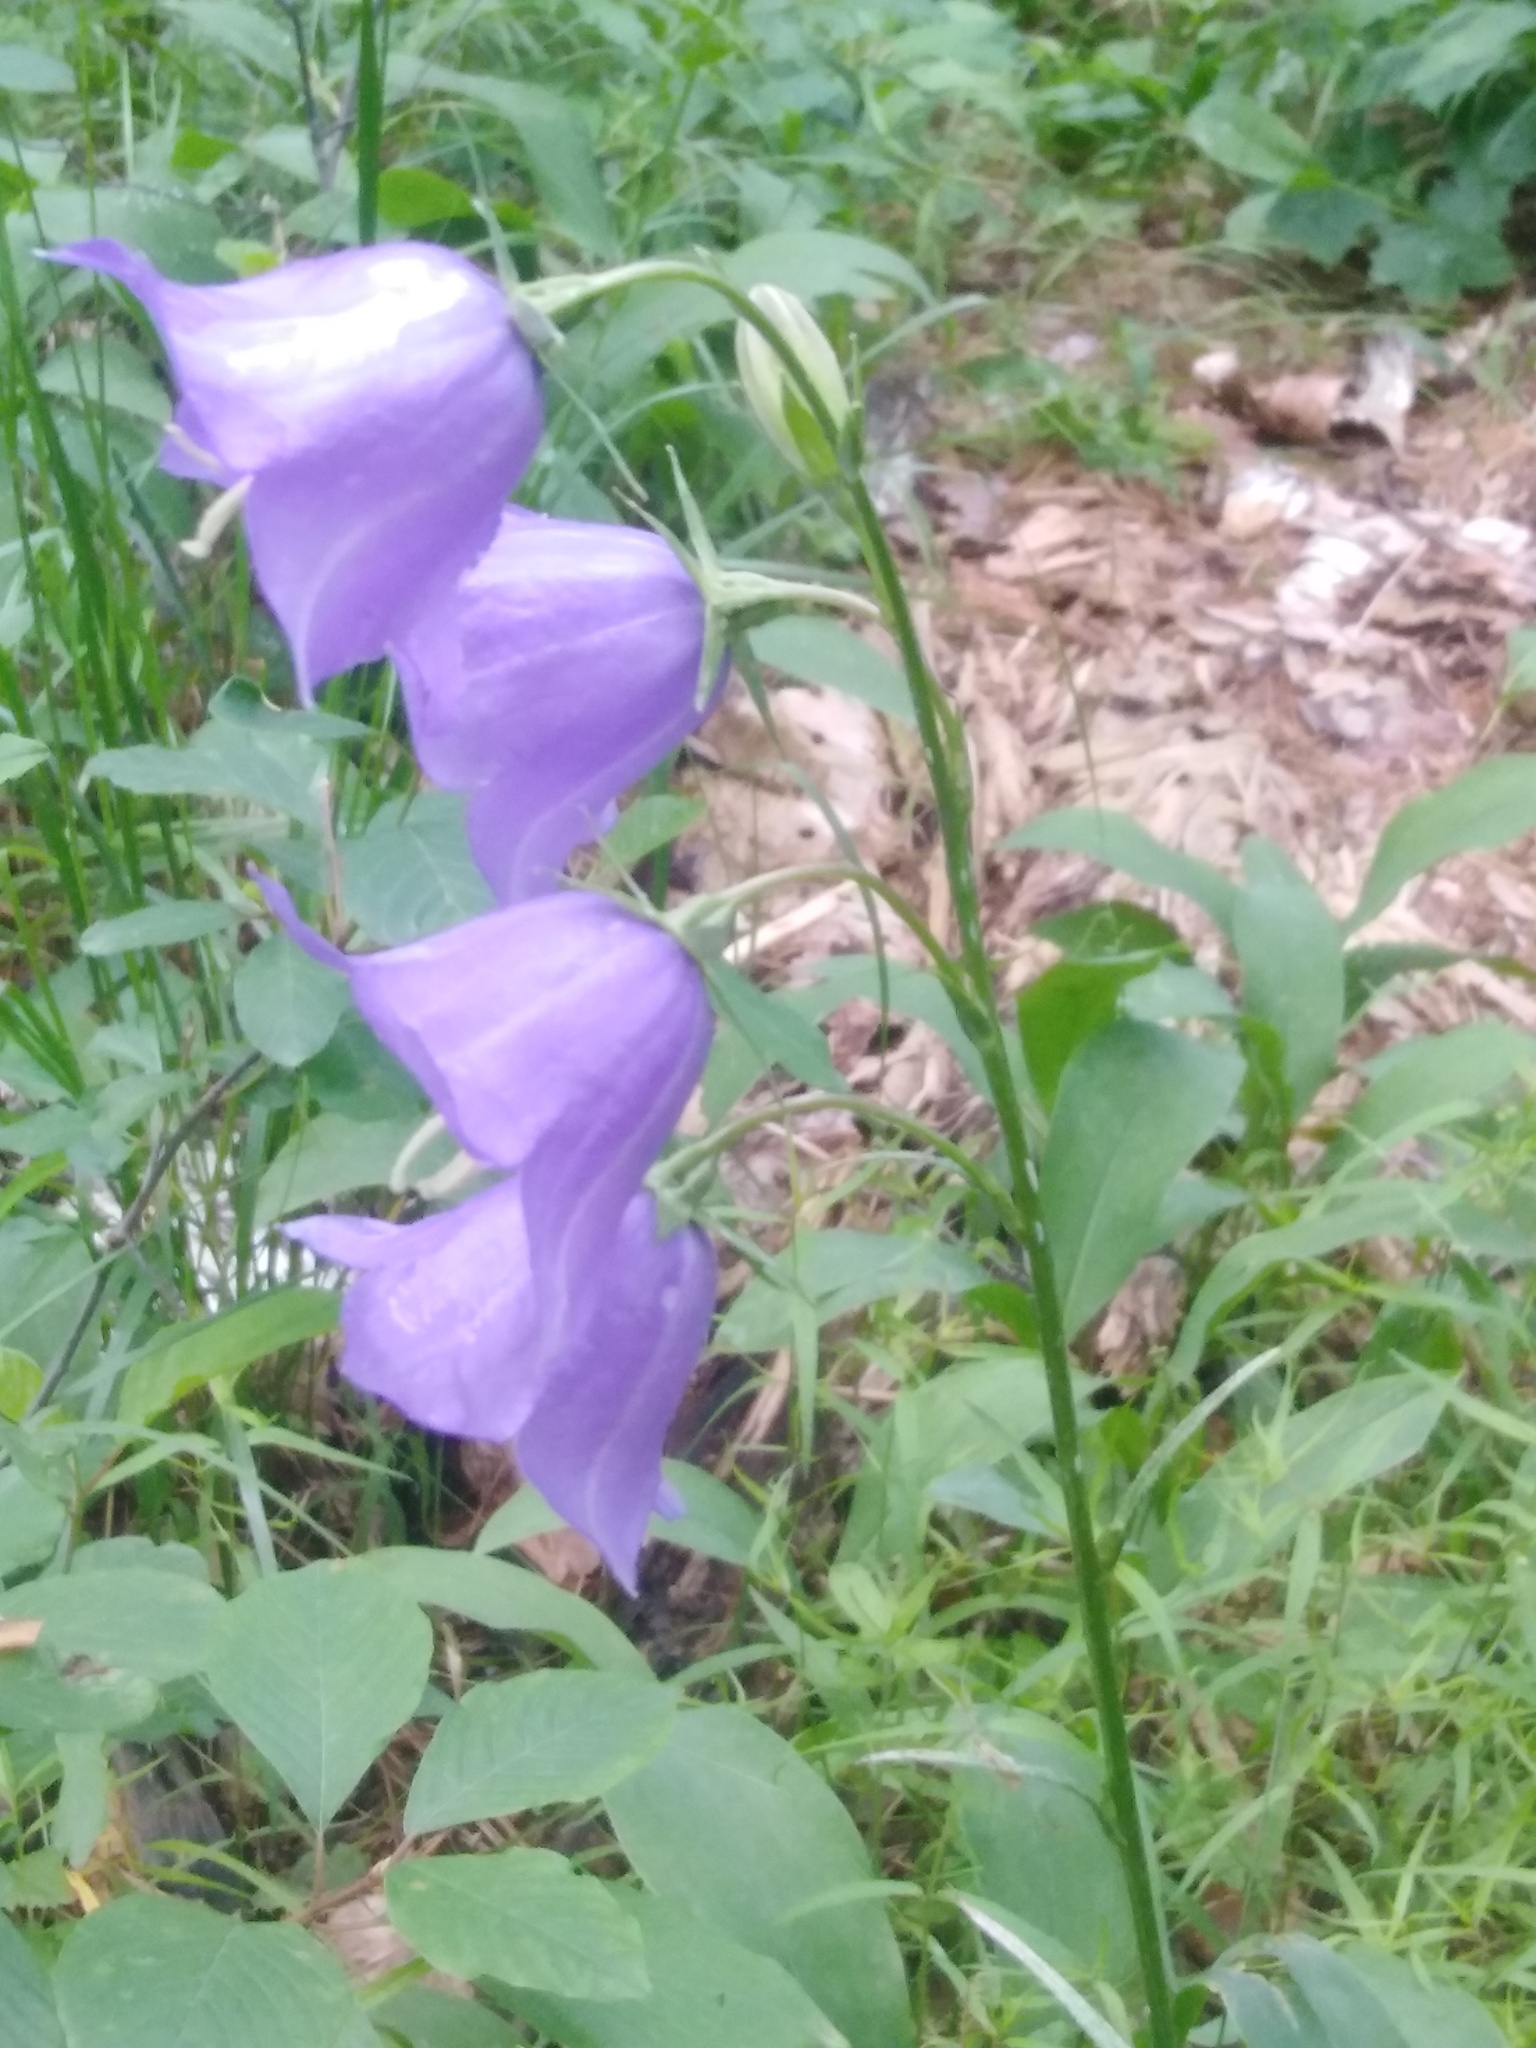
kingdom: Plantae
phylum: Tracheophyta
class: Magnoliopsida
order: Asterales
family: Campanulaceae
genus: Campanula
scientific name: Campanula persicifolia
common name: Peach-leaved bellflower
